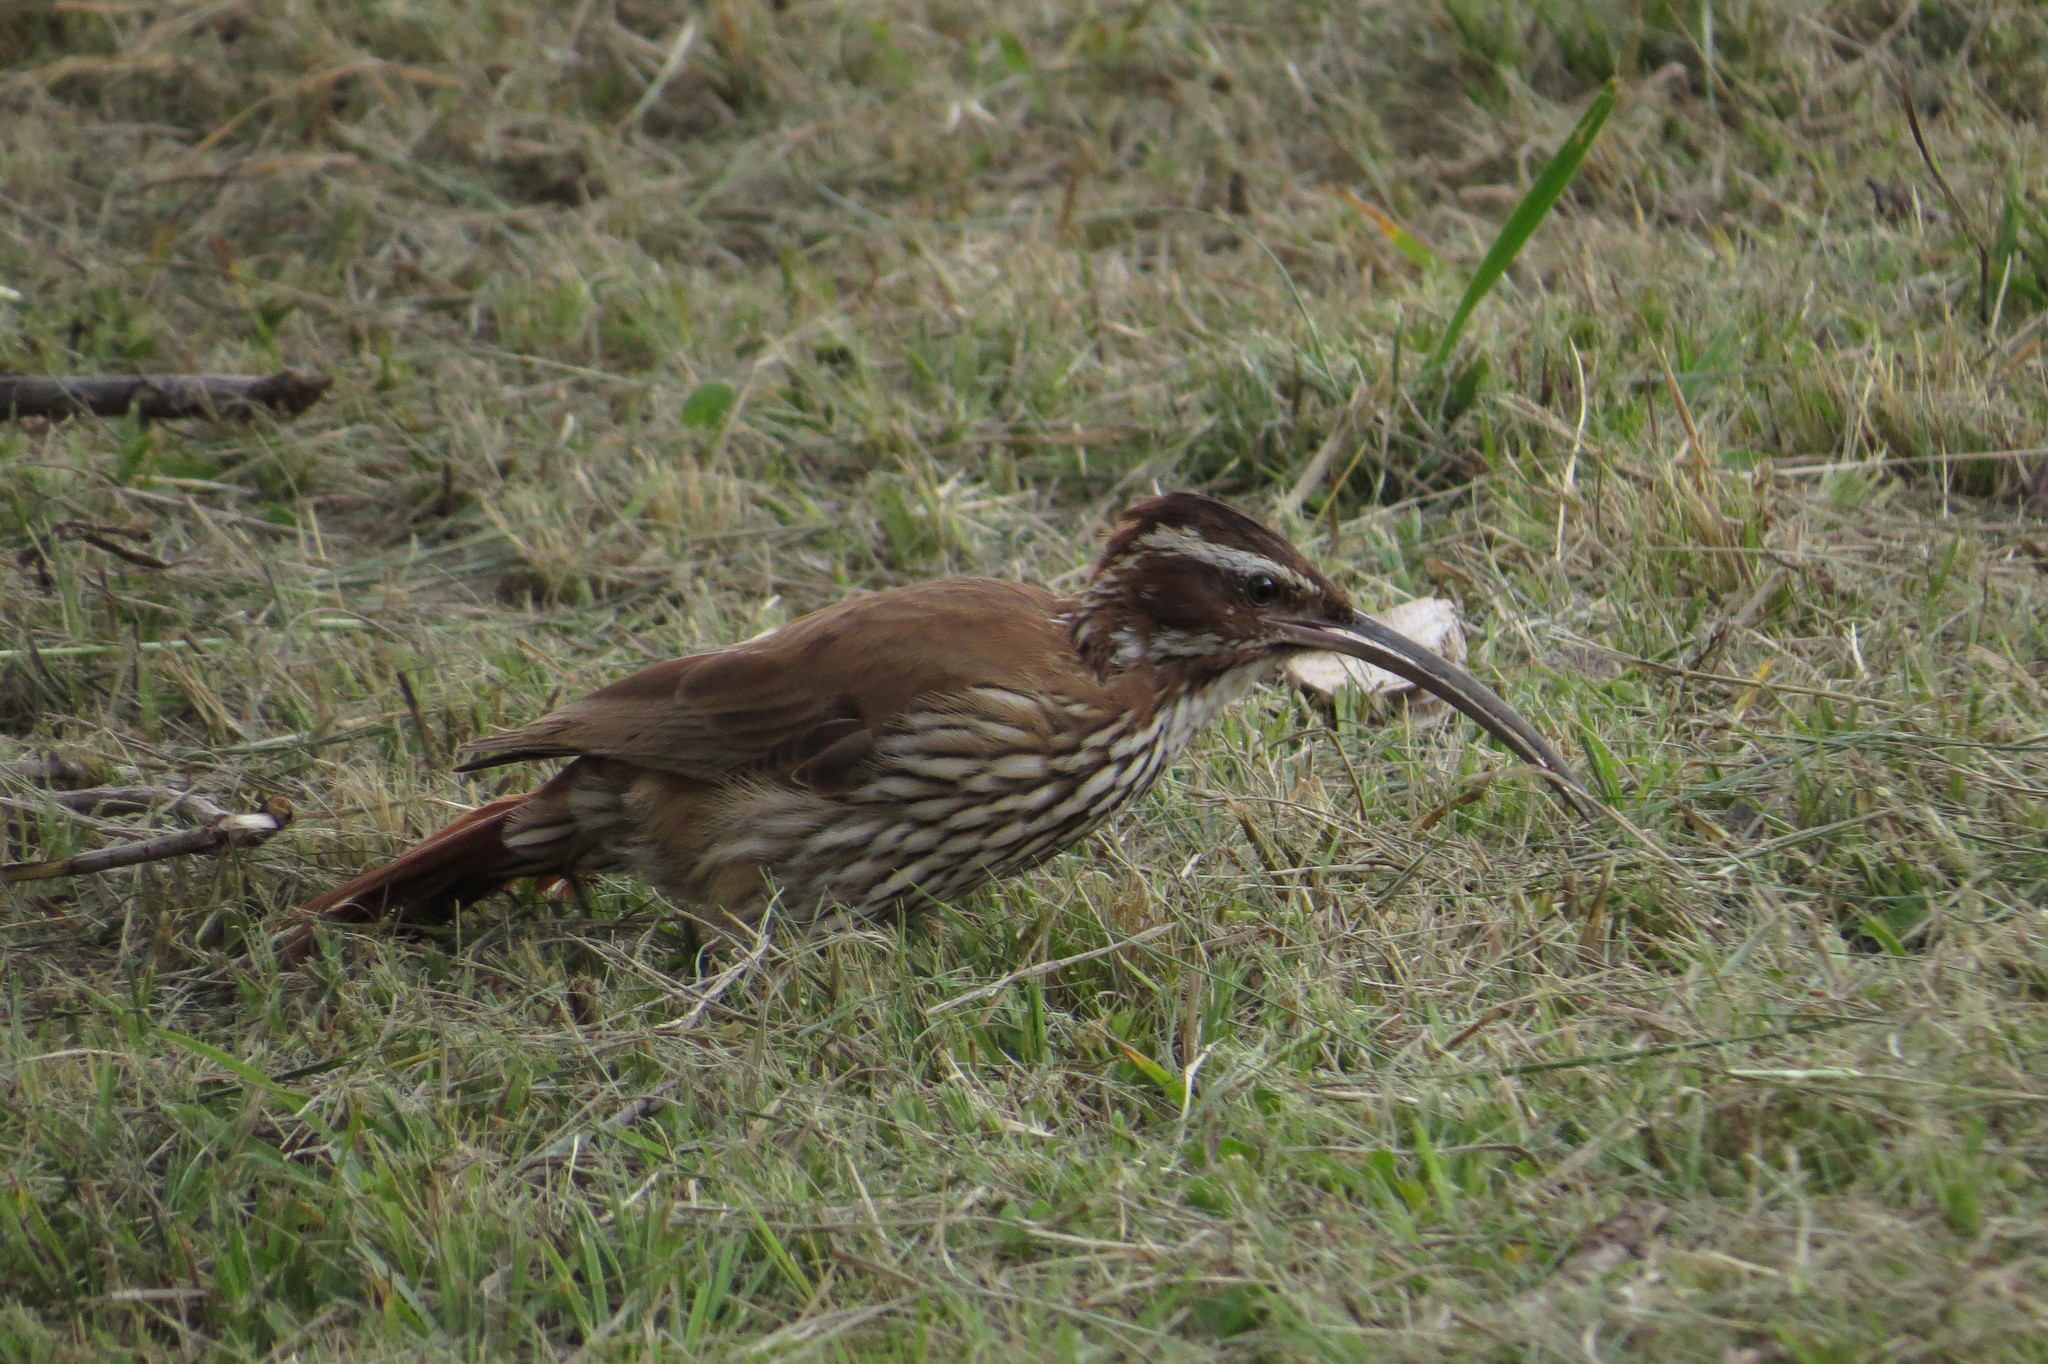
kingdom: Animalia
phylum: Chordata
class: Aves
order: Passeriformes
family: Furnariidae
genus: Drymornis
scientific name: Drymornis bridgesii
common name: Scimitar-billed woodcreeper
